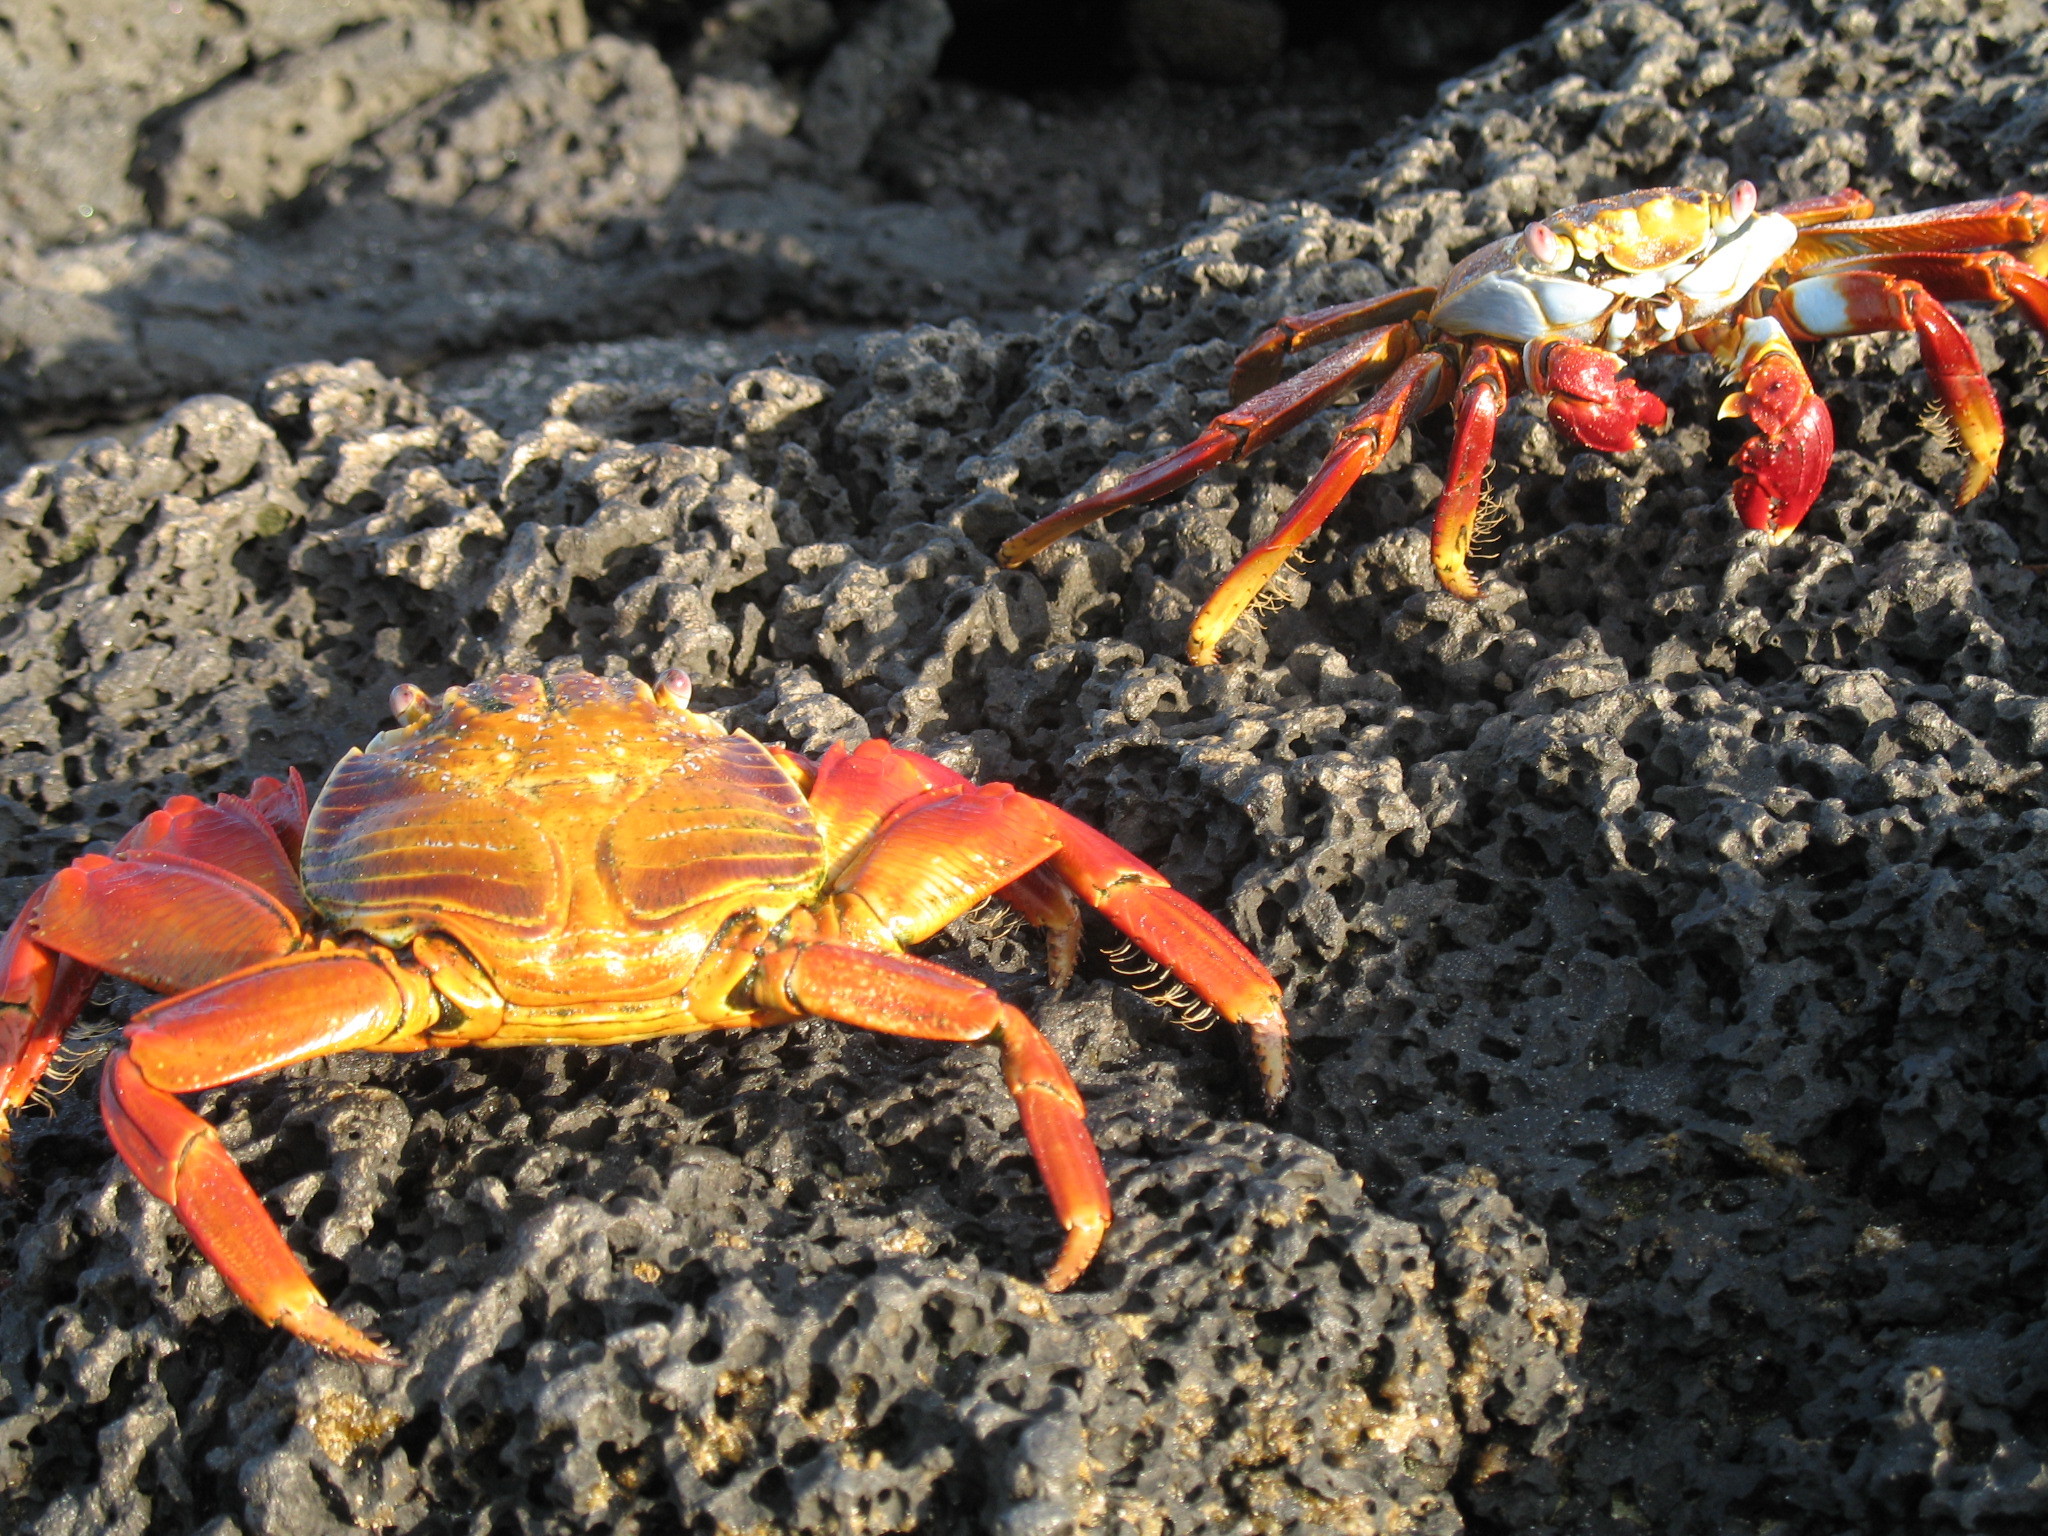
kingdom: Animalia
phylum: Arthropoda
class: Malacostraca
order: Decapoda
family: Grapsidae
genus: Grapsus
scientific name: Grapsus grapsus
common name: Sally lightfoot
